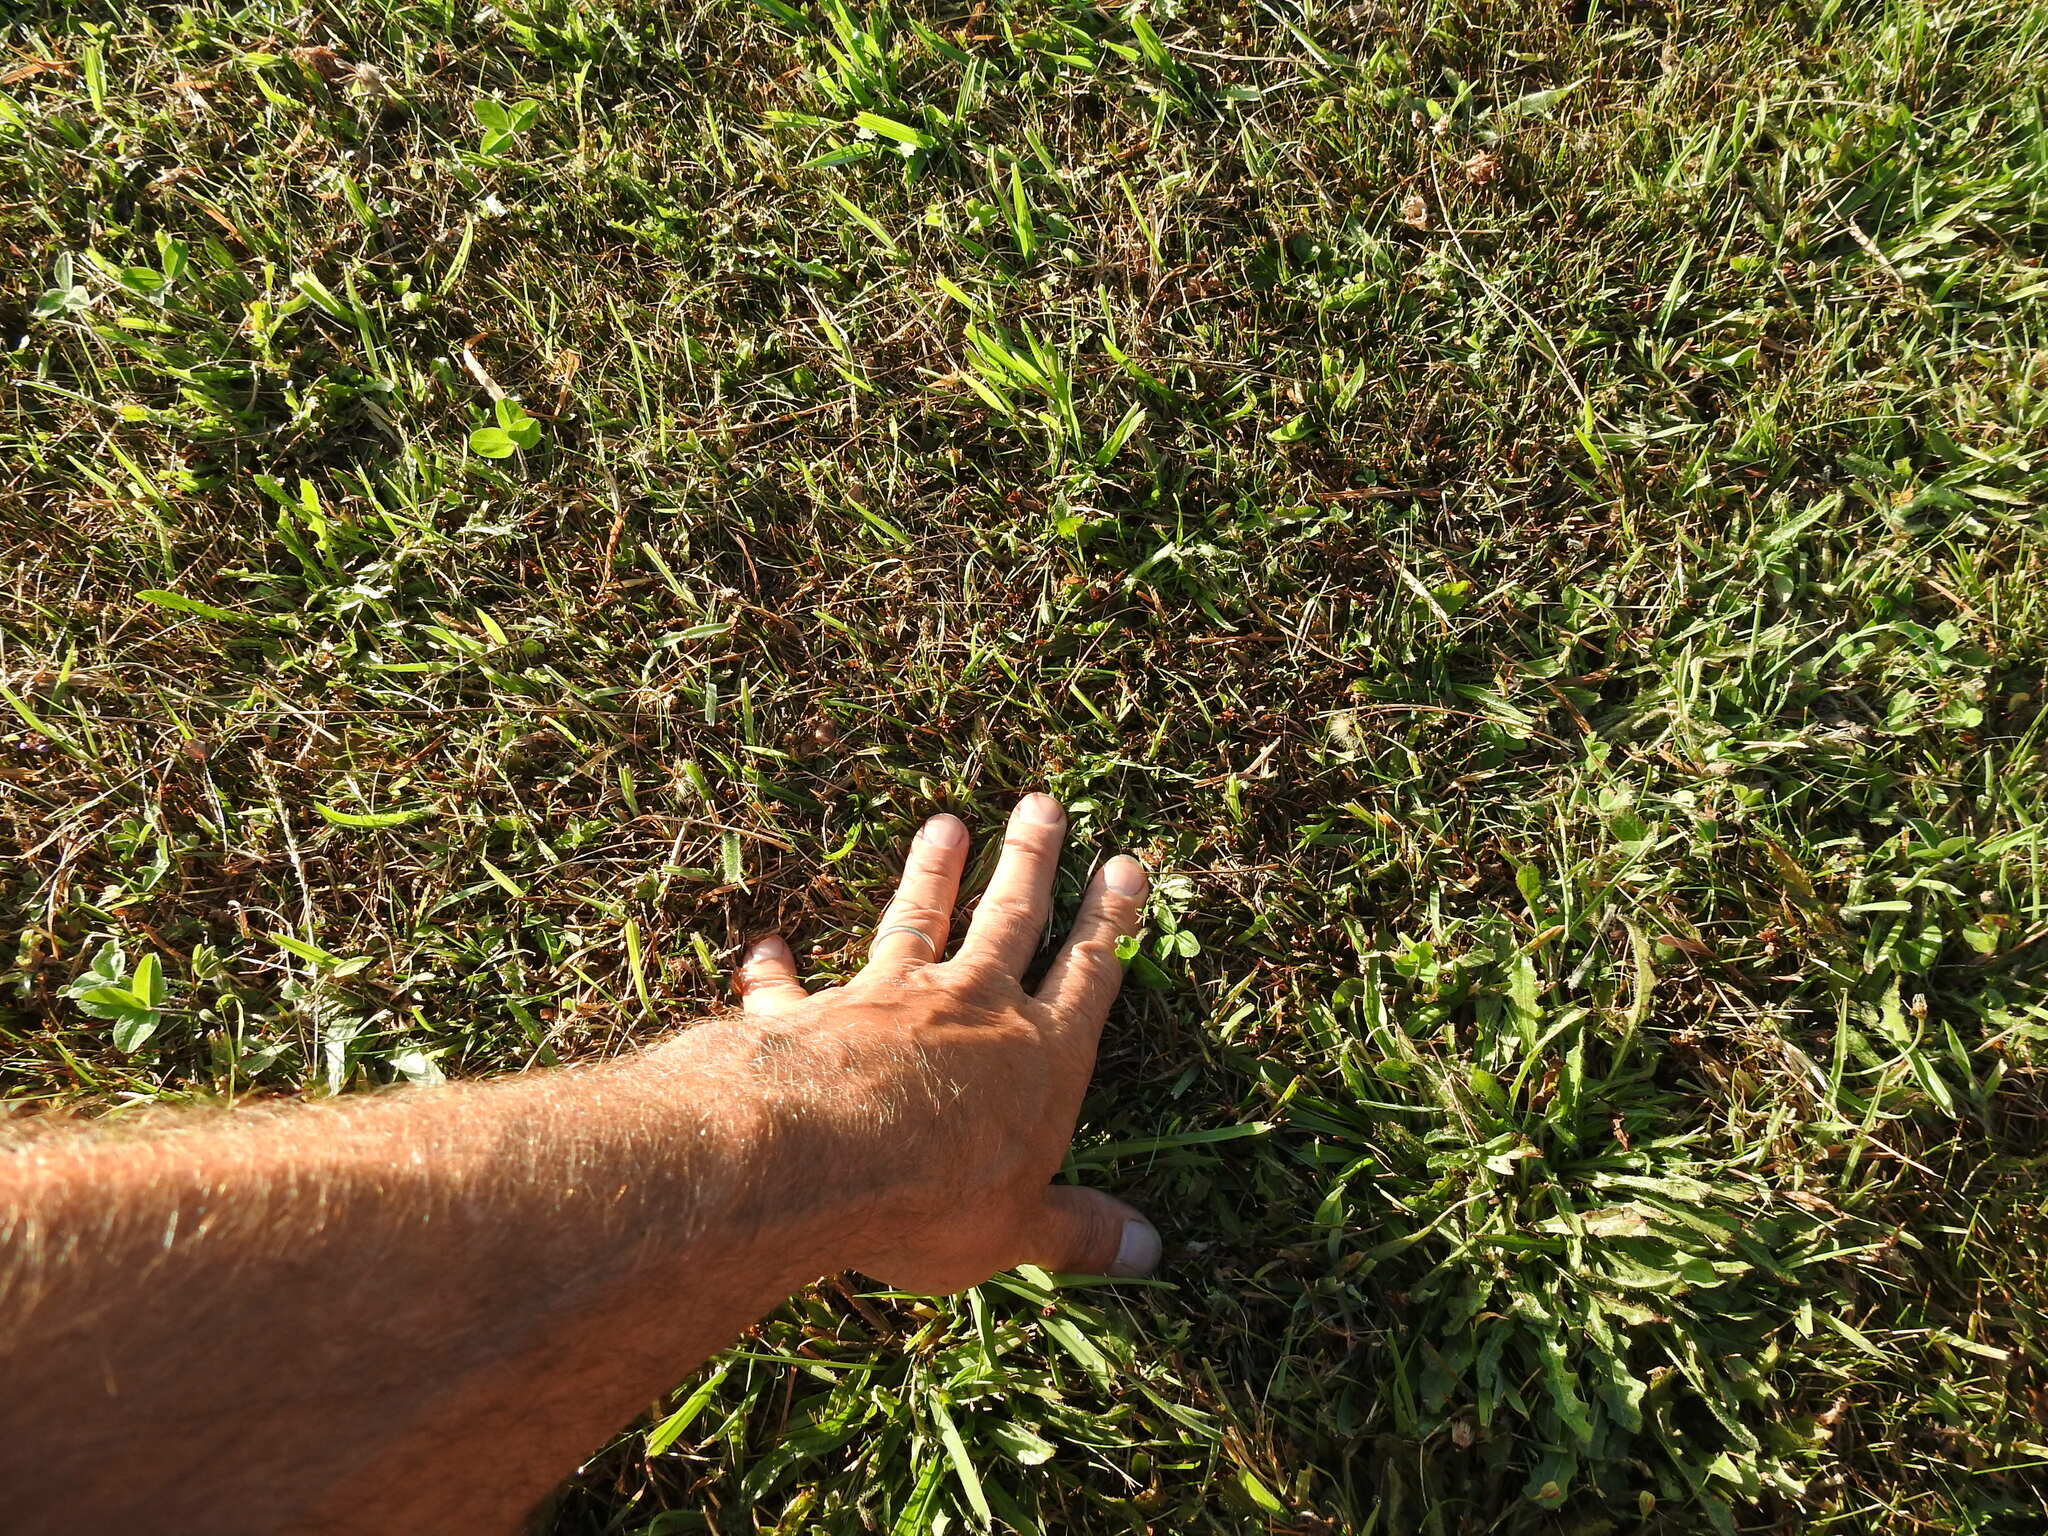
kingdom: Plantae
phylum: Tracheophyta
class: Liliopsida
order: Poales
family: Juncaceae
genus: Juncus
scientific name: Juncus caespiticius
